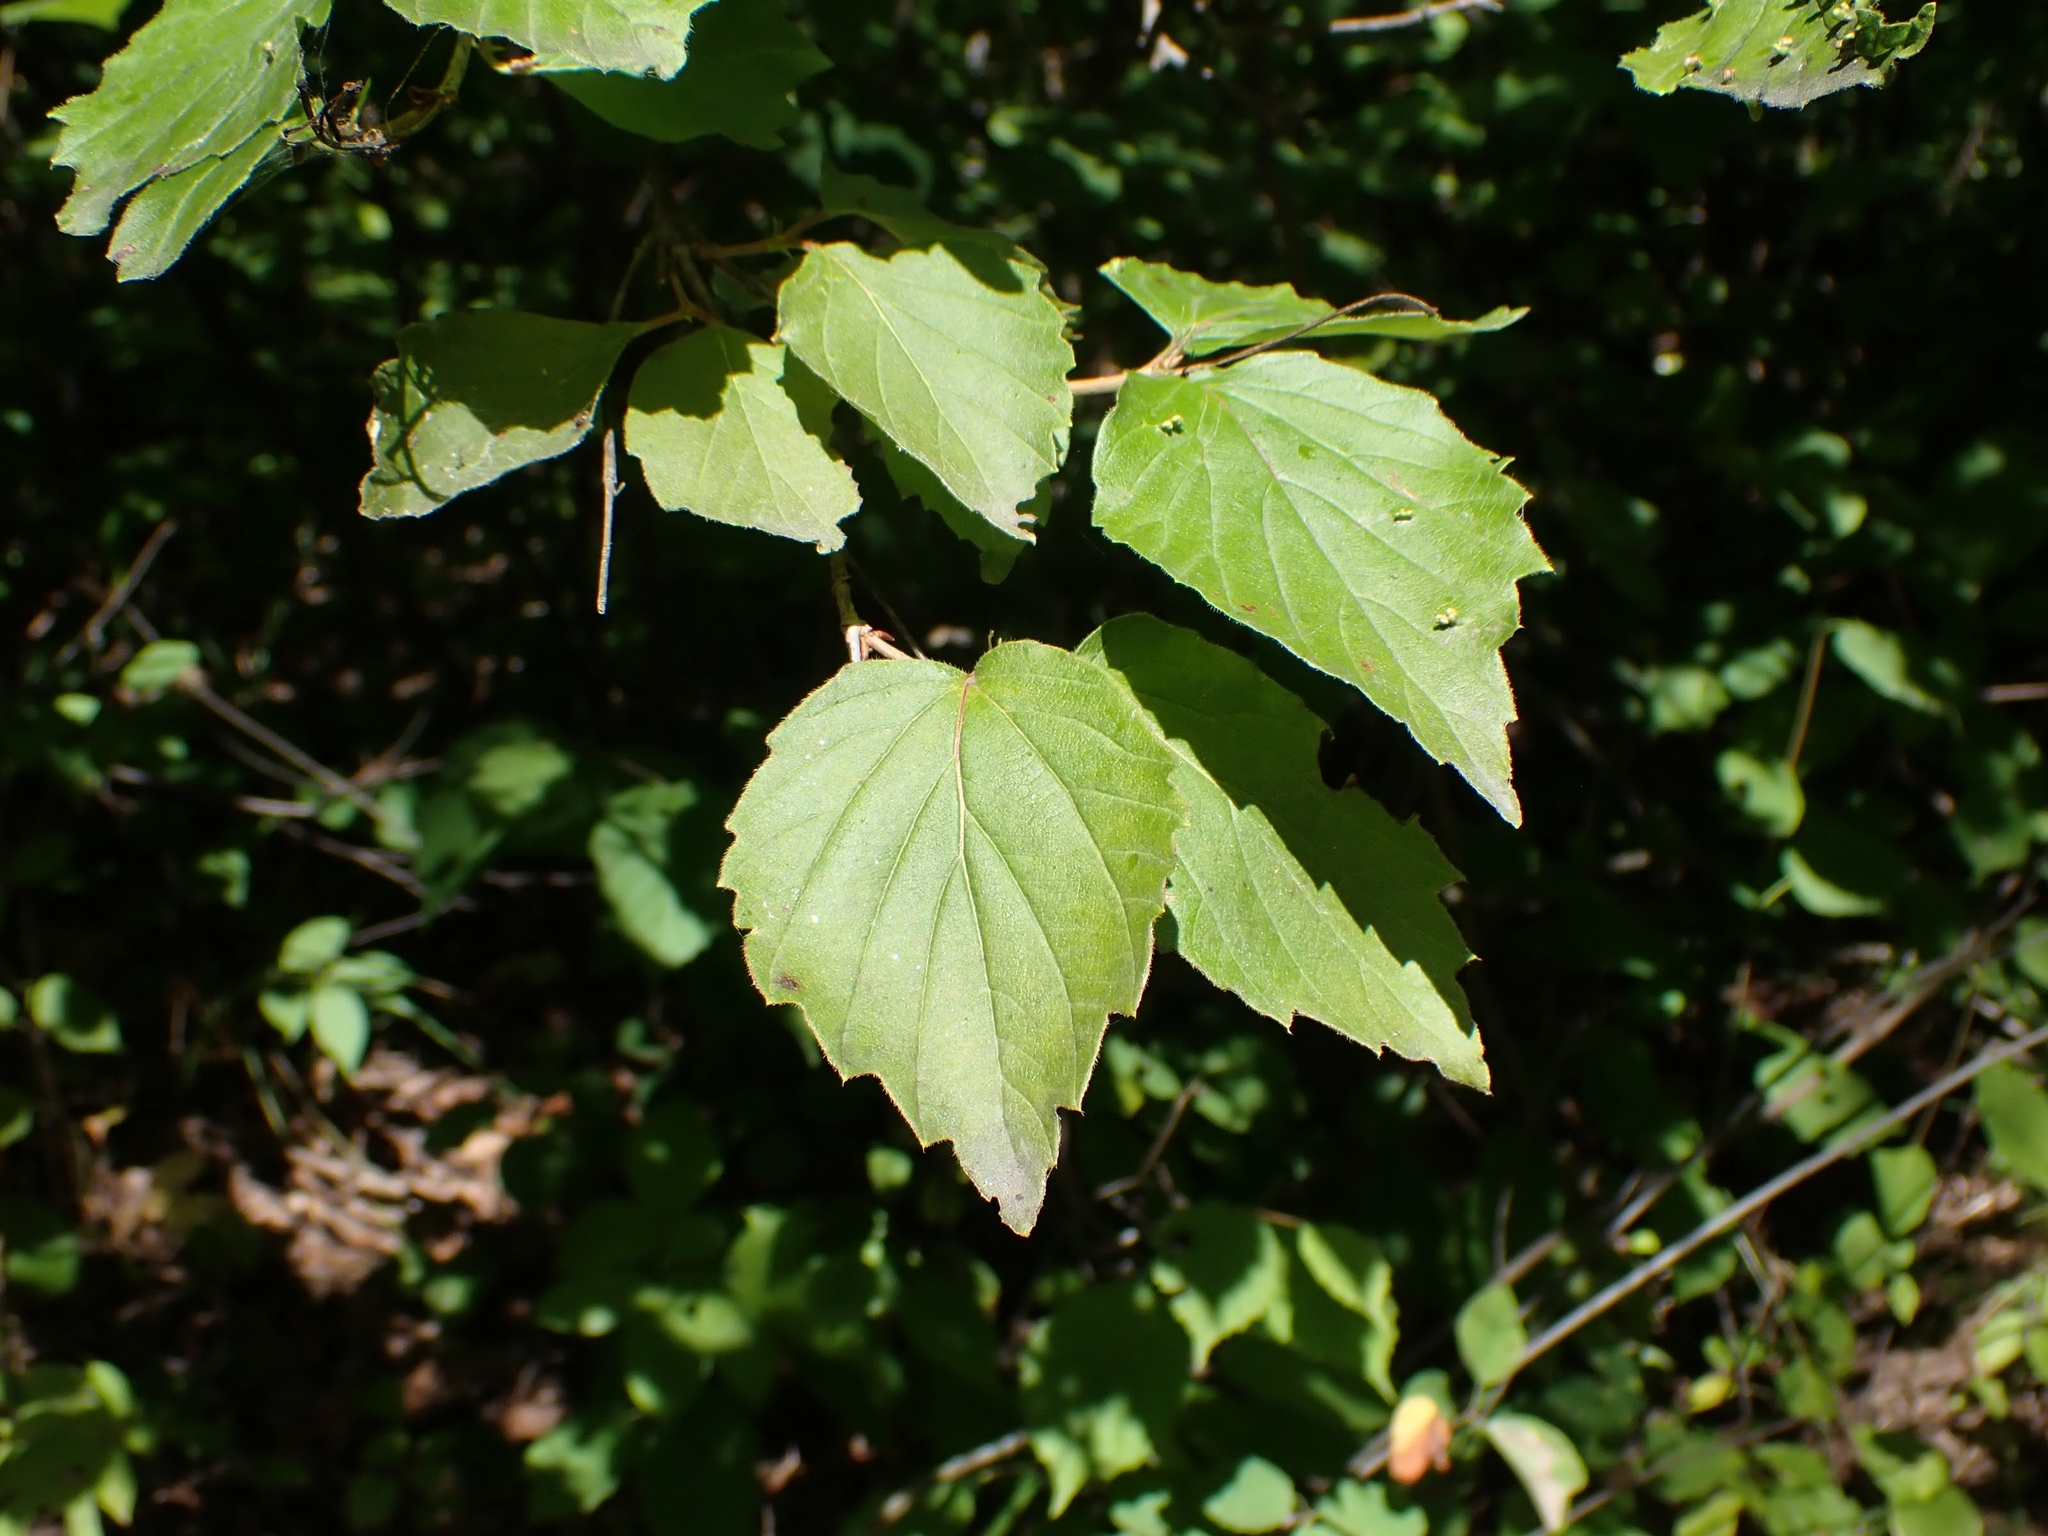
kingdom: Plantae
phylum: Tracheophyta
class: Magnoliopsida
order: Dipsacales
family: Viburnaceae
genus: Viburnum
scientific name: Viburnum rafinesqueanum
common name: Downy arrow-wood
